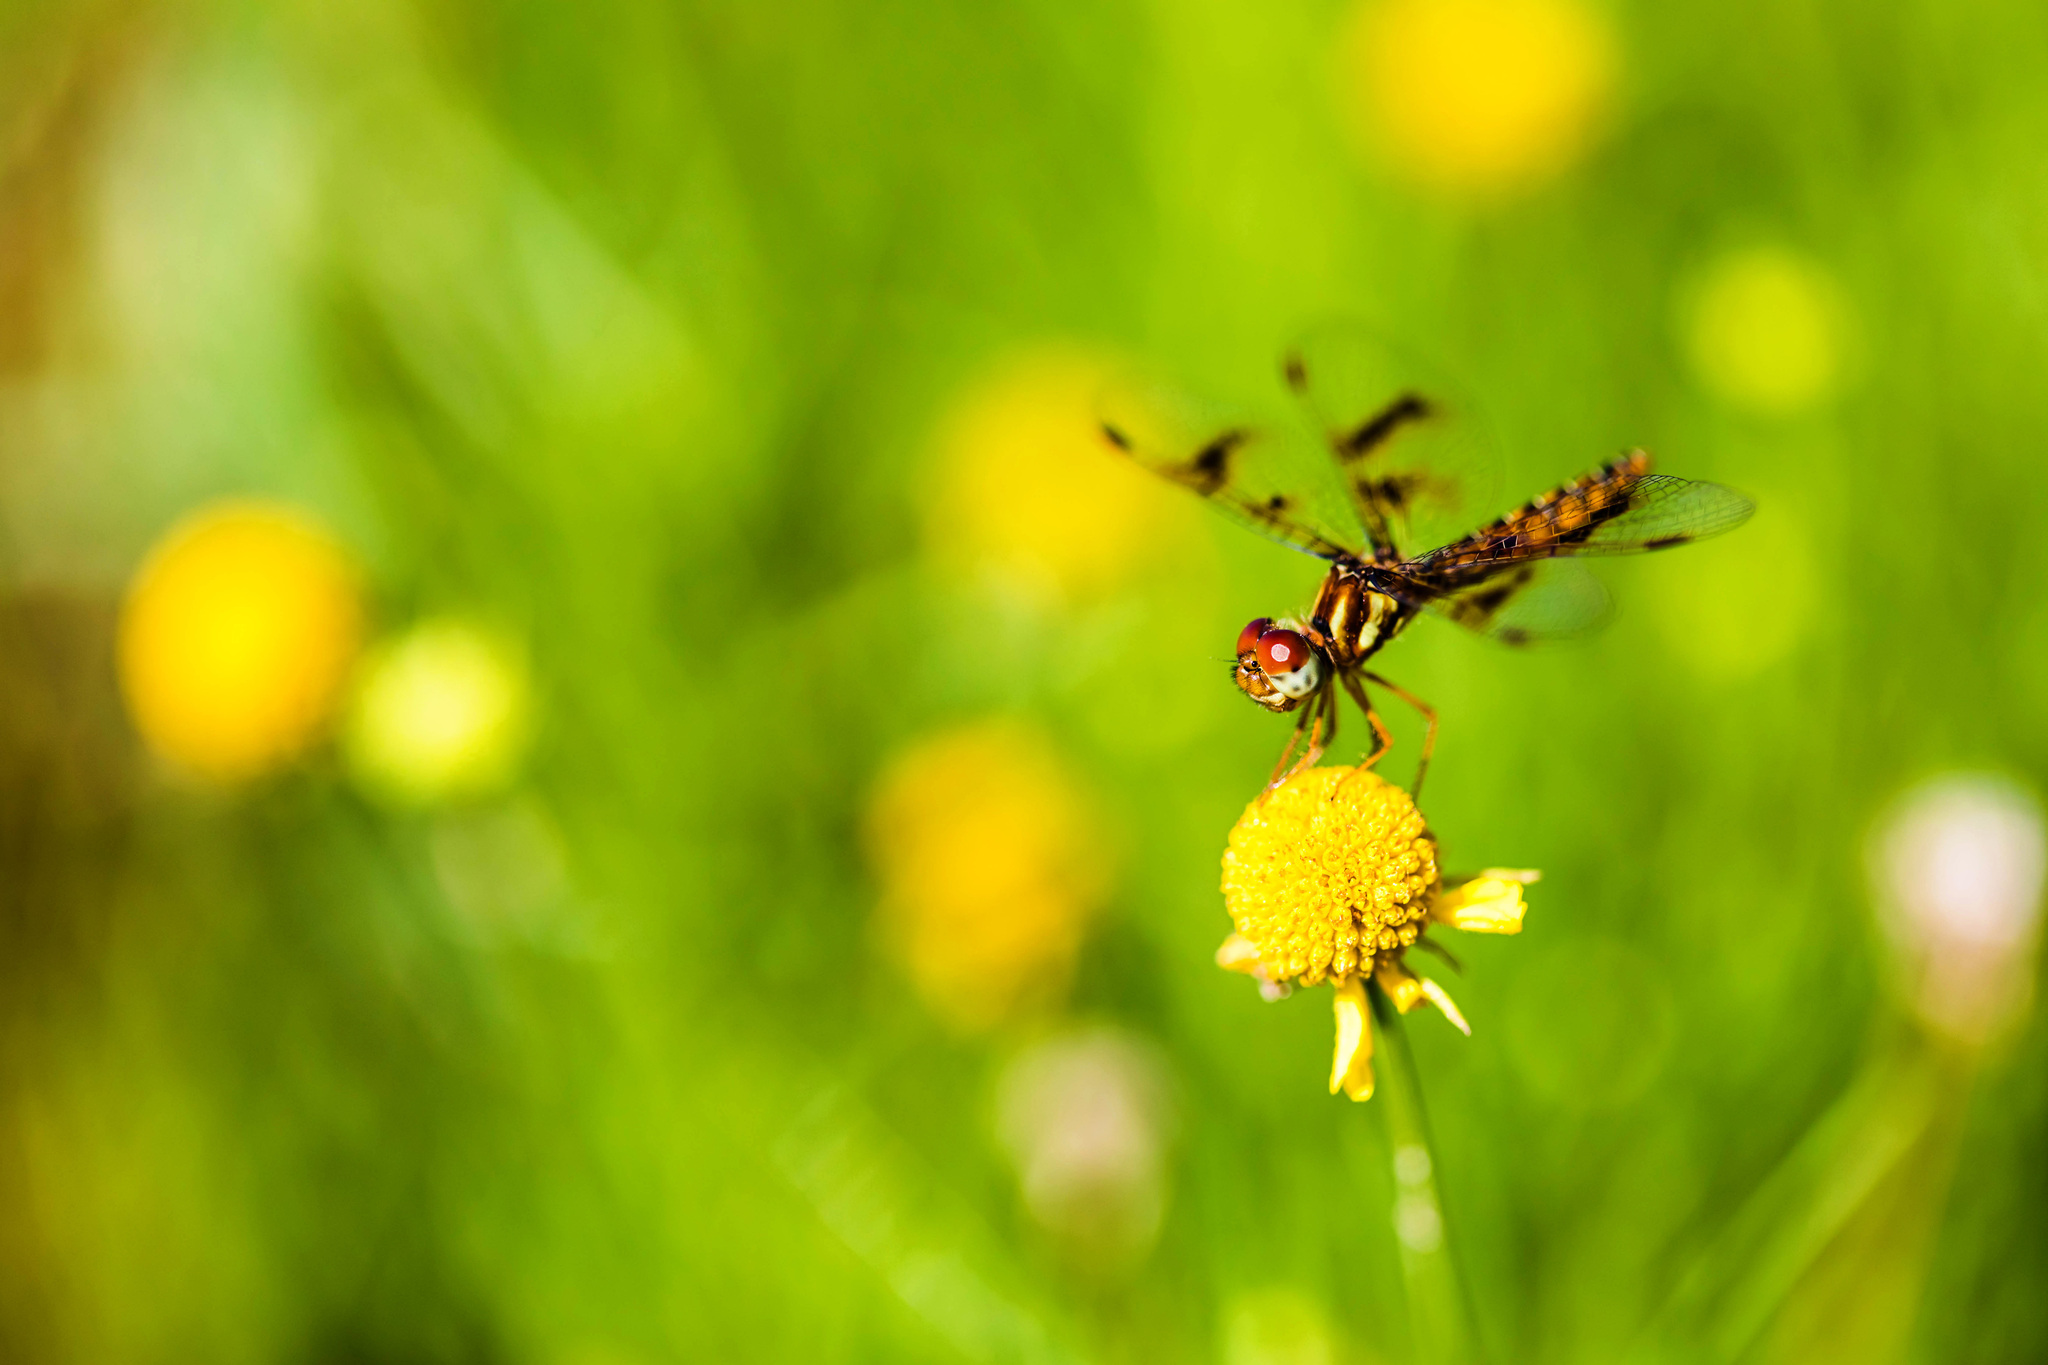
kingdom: Animalia
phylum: Arthropoda
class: Insecta
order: Odonata
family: Libellulidae
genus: Perithemis
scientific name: Perithemis tenera
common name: Eastern amberwing
